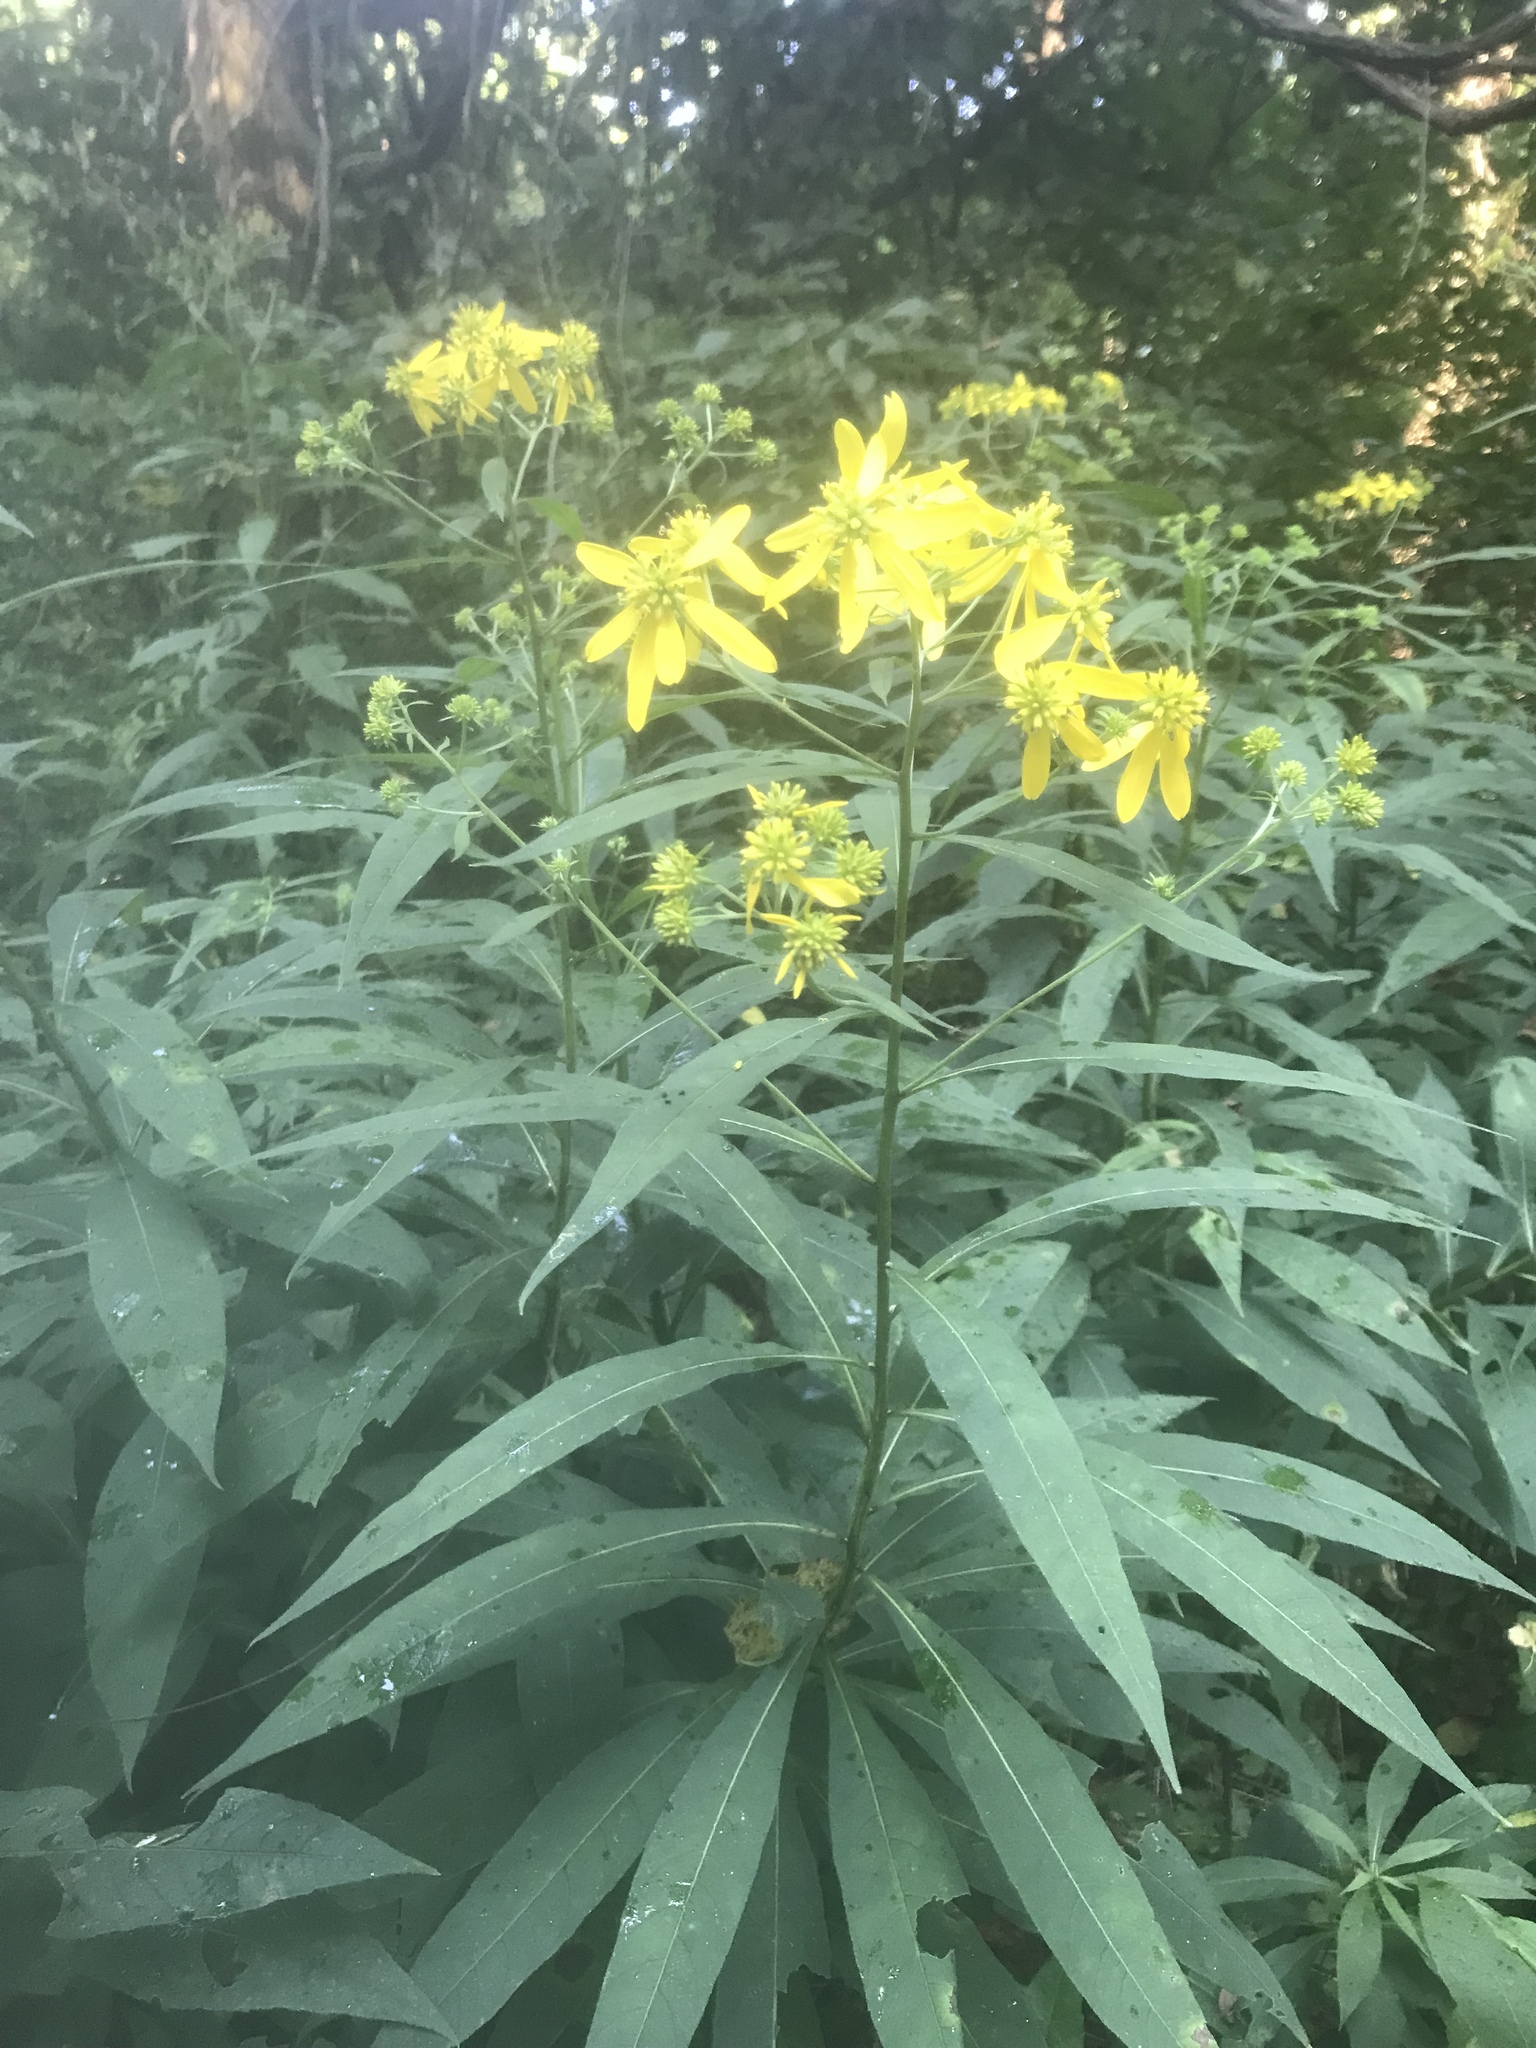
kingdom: Plantae
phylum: Tracheophyta
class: Magnoliopsida
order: Asterales
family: Asteraceae
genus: Verbesina
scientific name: Verbesina alternifolia
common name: Wingstem
